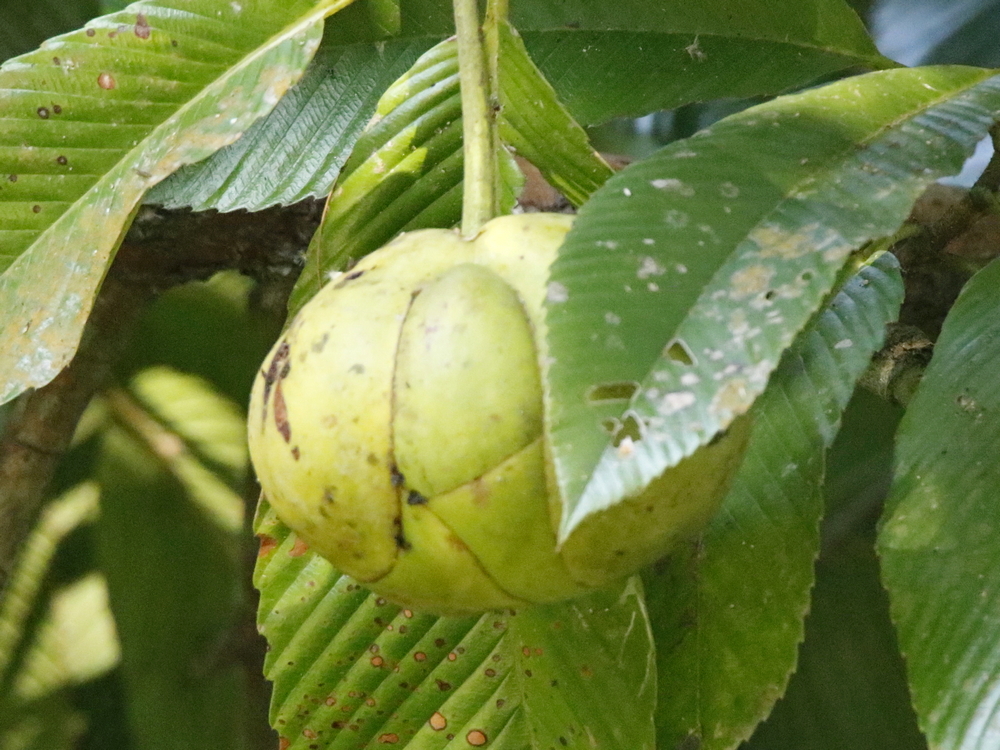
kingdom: Plantae
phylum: Tracheophyta
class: Magnoliopsida
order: Dilleniales
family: Dilleniaceae
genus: Dillenia
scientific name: Dillenia indica
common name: Elephant apple
